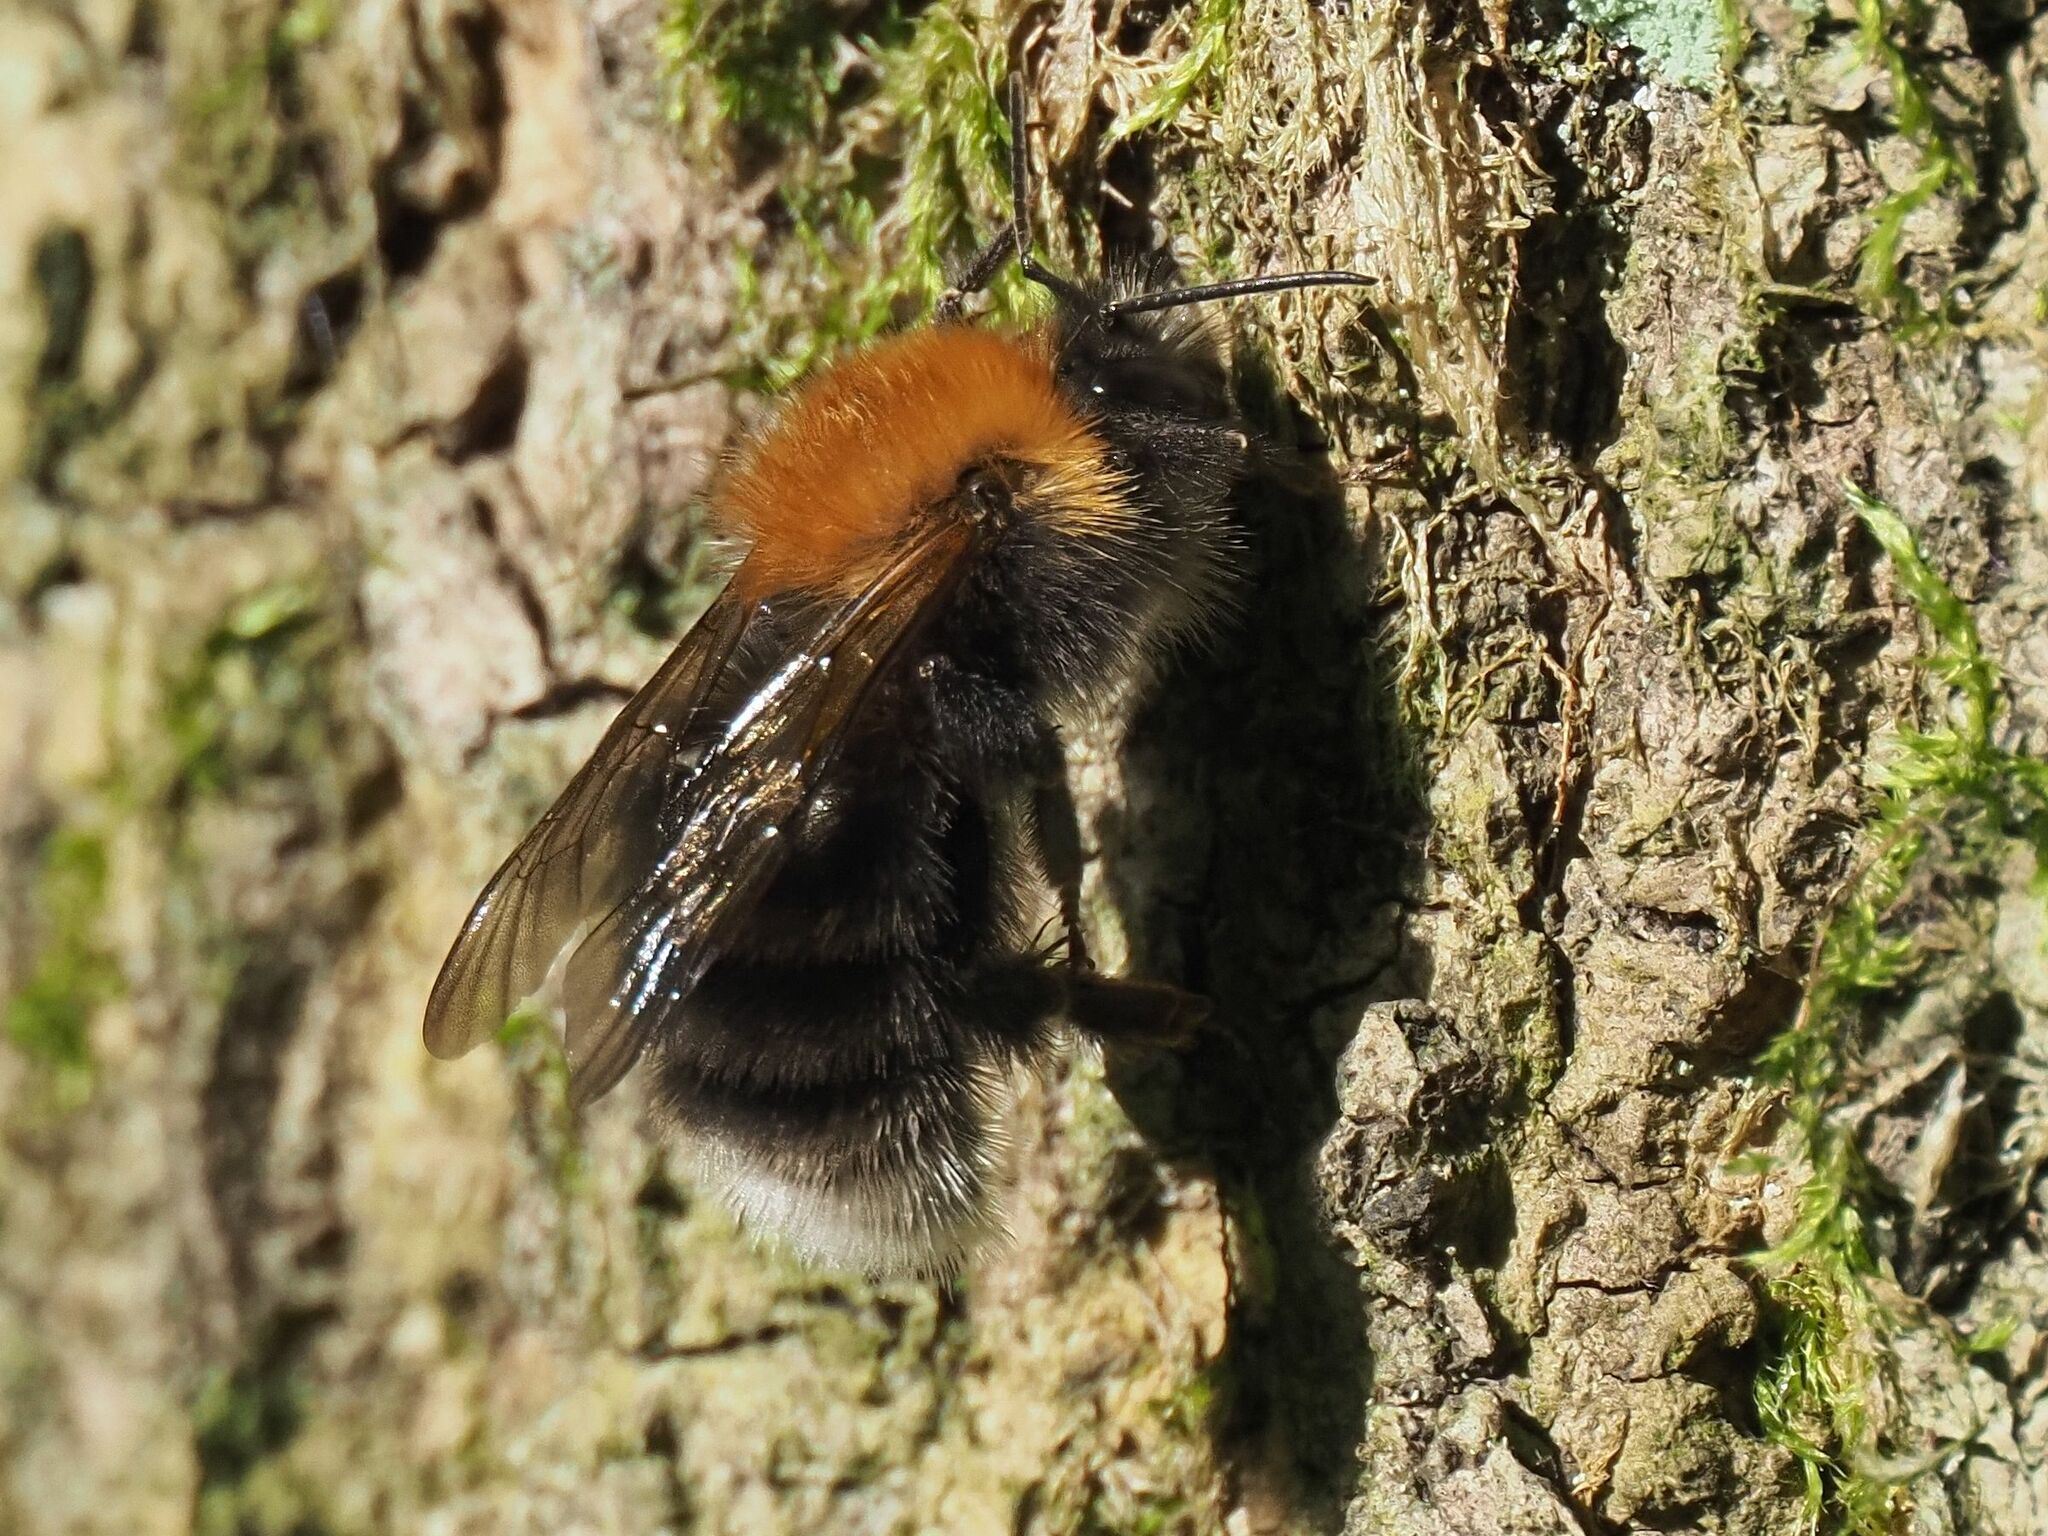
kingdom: Animalia
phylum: Arthropoda
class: Insecta
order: Hymenoptera
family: Apidae
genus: Bombus
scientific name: Bombus hypnorum
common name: New garden bumblebee
